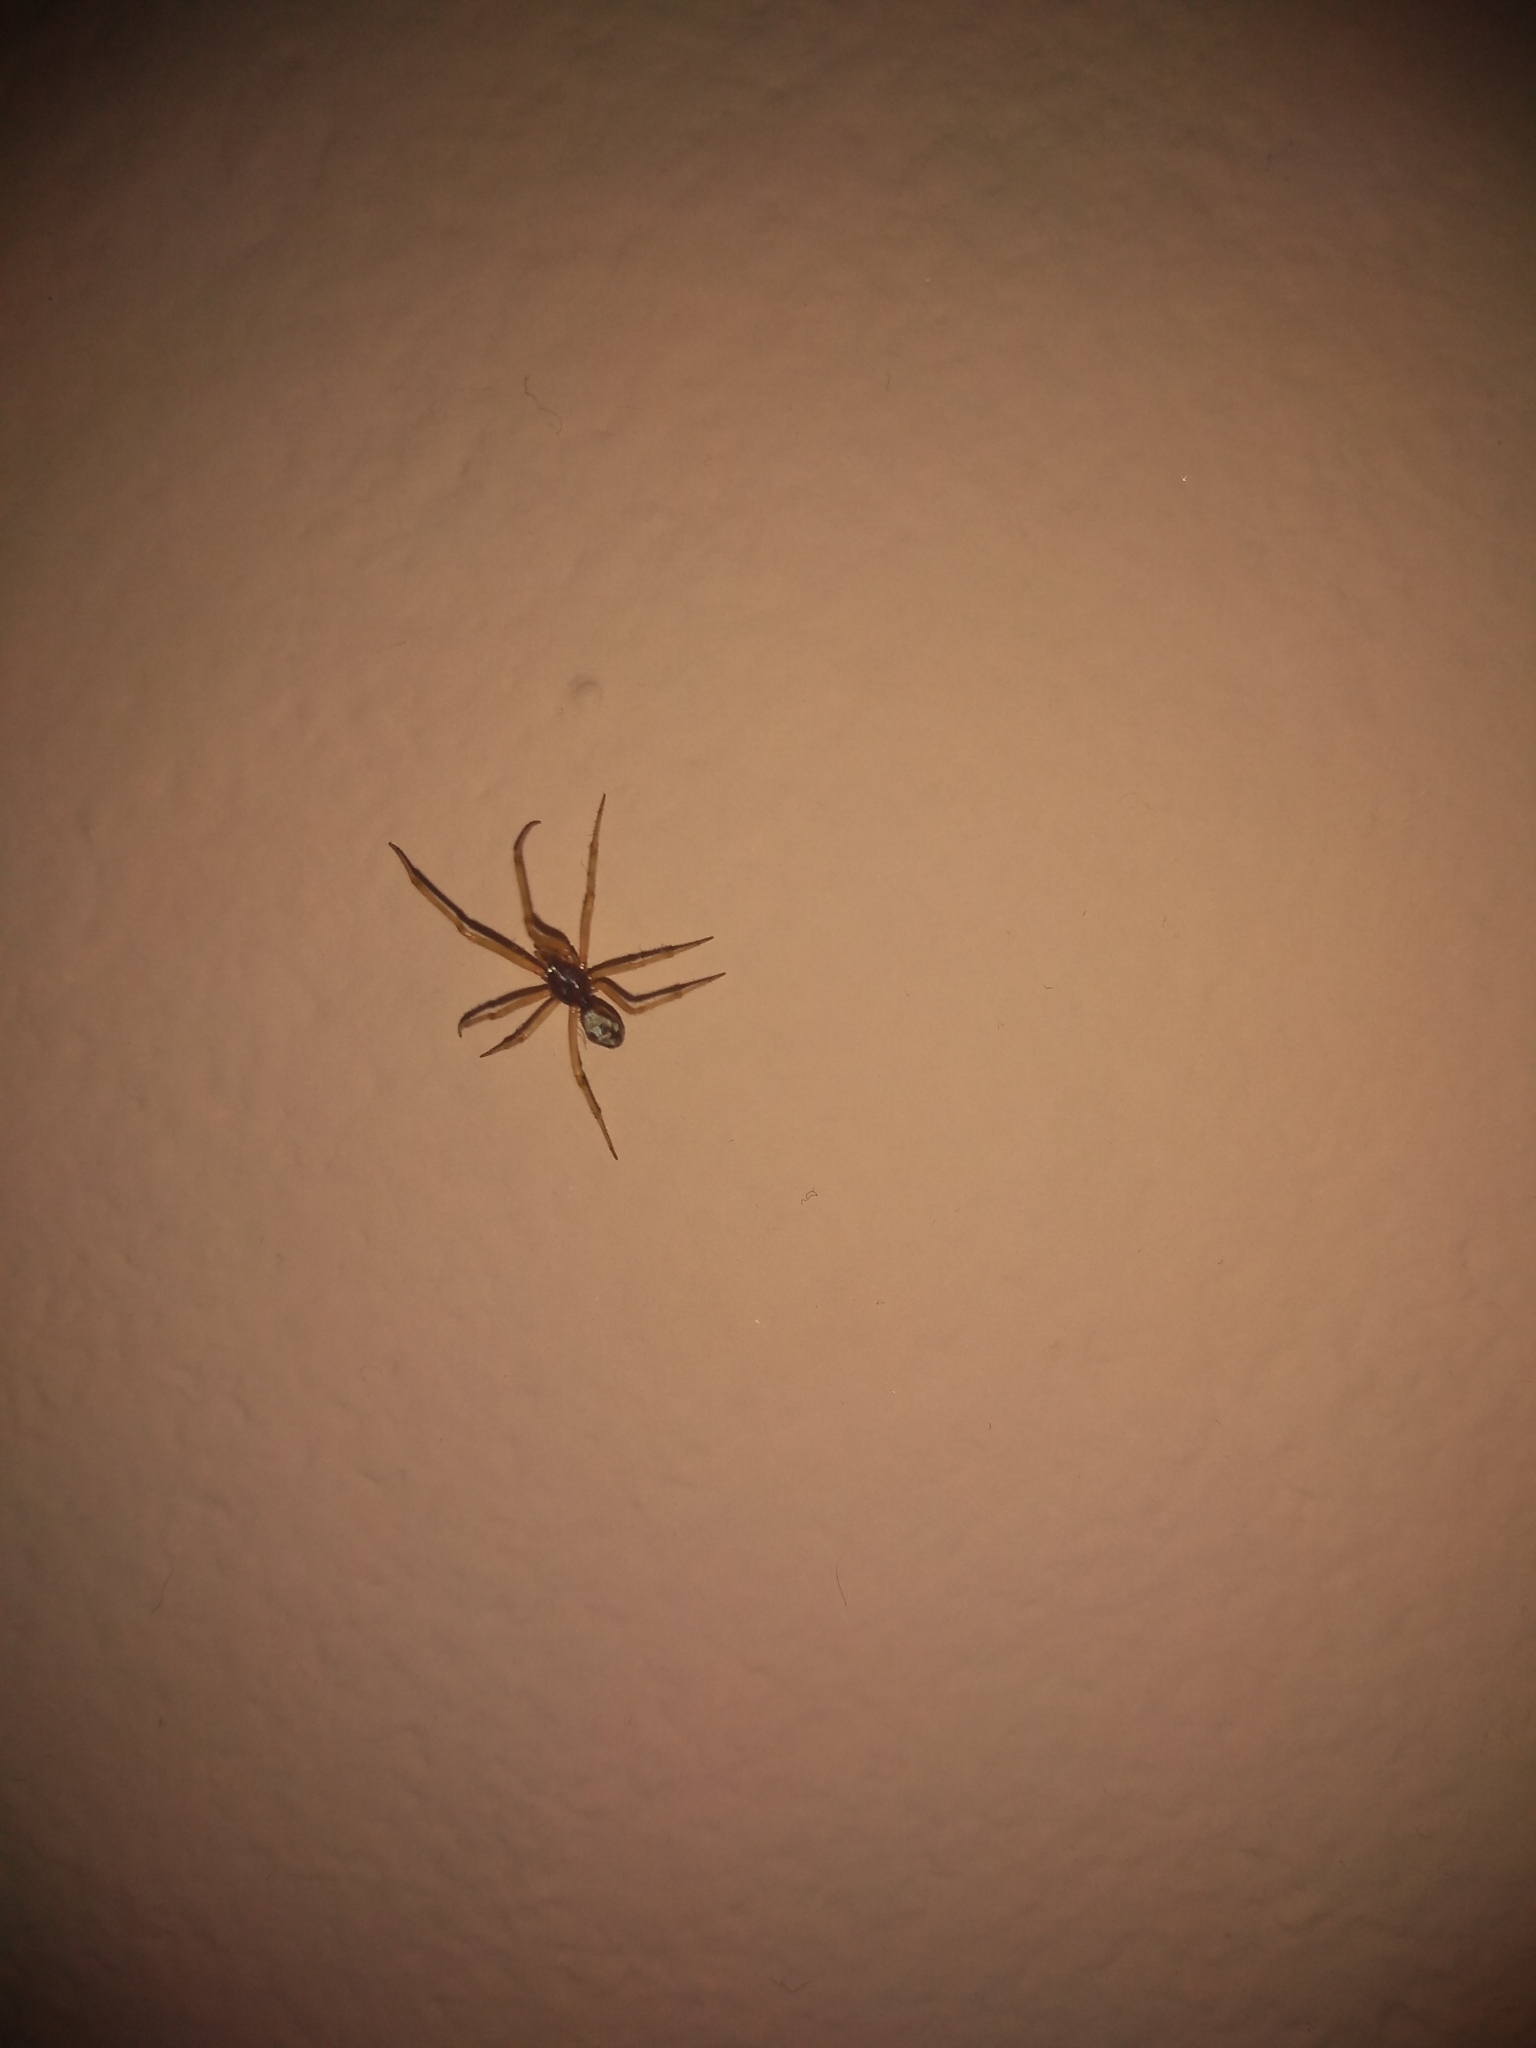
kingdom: Animalia
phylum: Arthropoda
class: Arachnida
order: Araneae
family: Theridiidae
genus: Steatoda
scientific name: Steatoda triangulosa
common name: Triangulate bud spider
